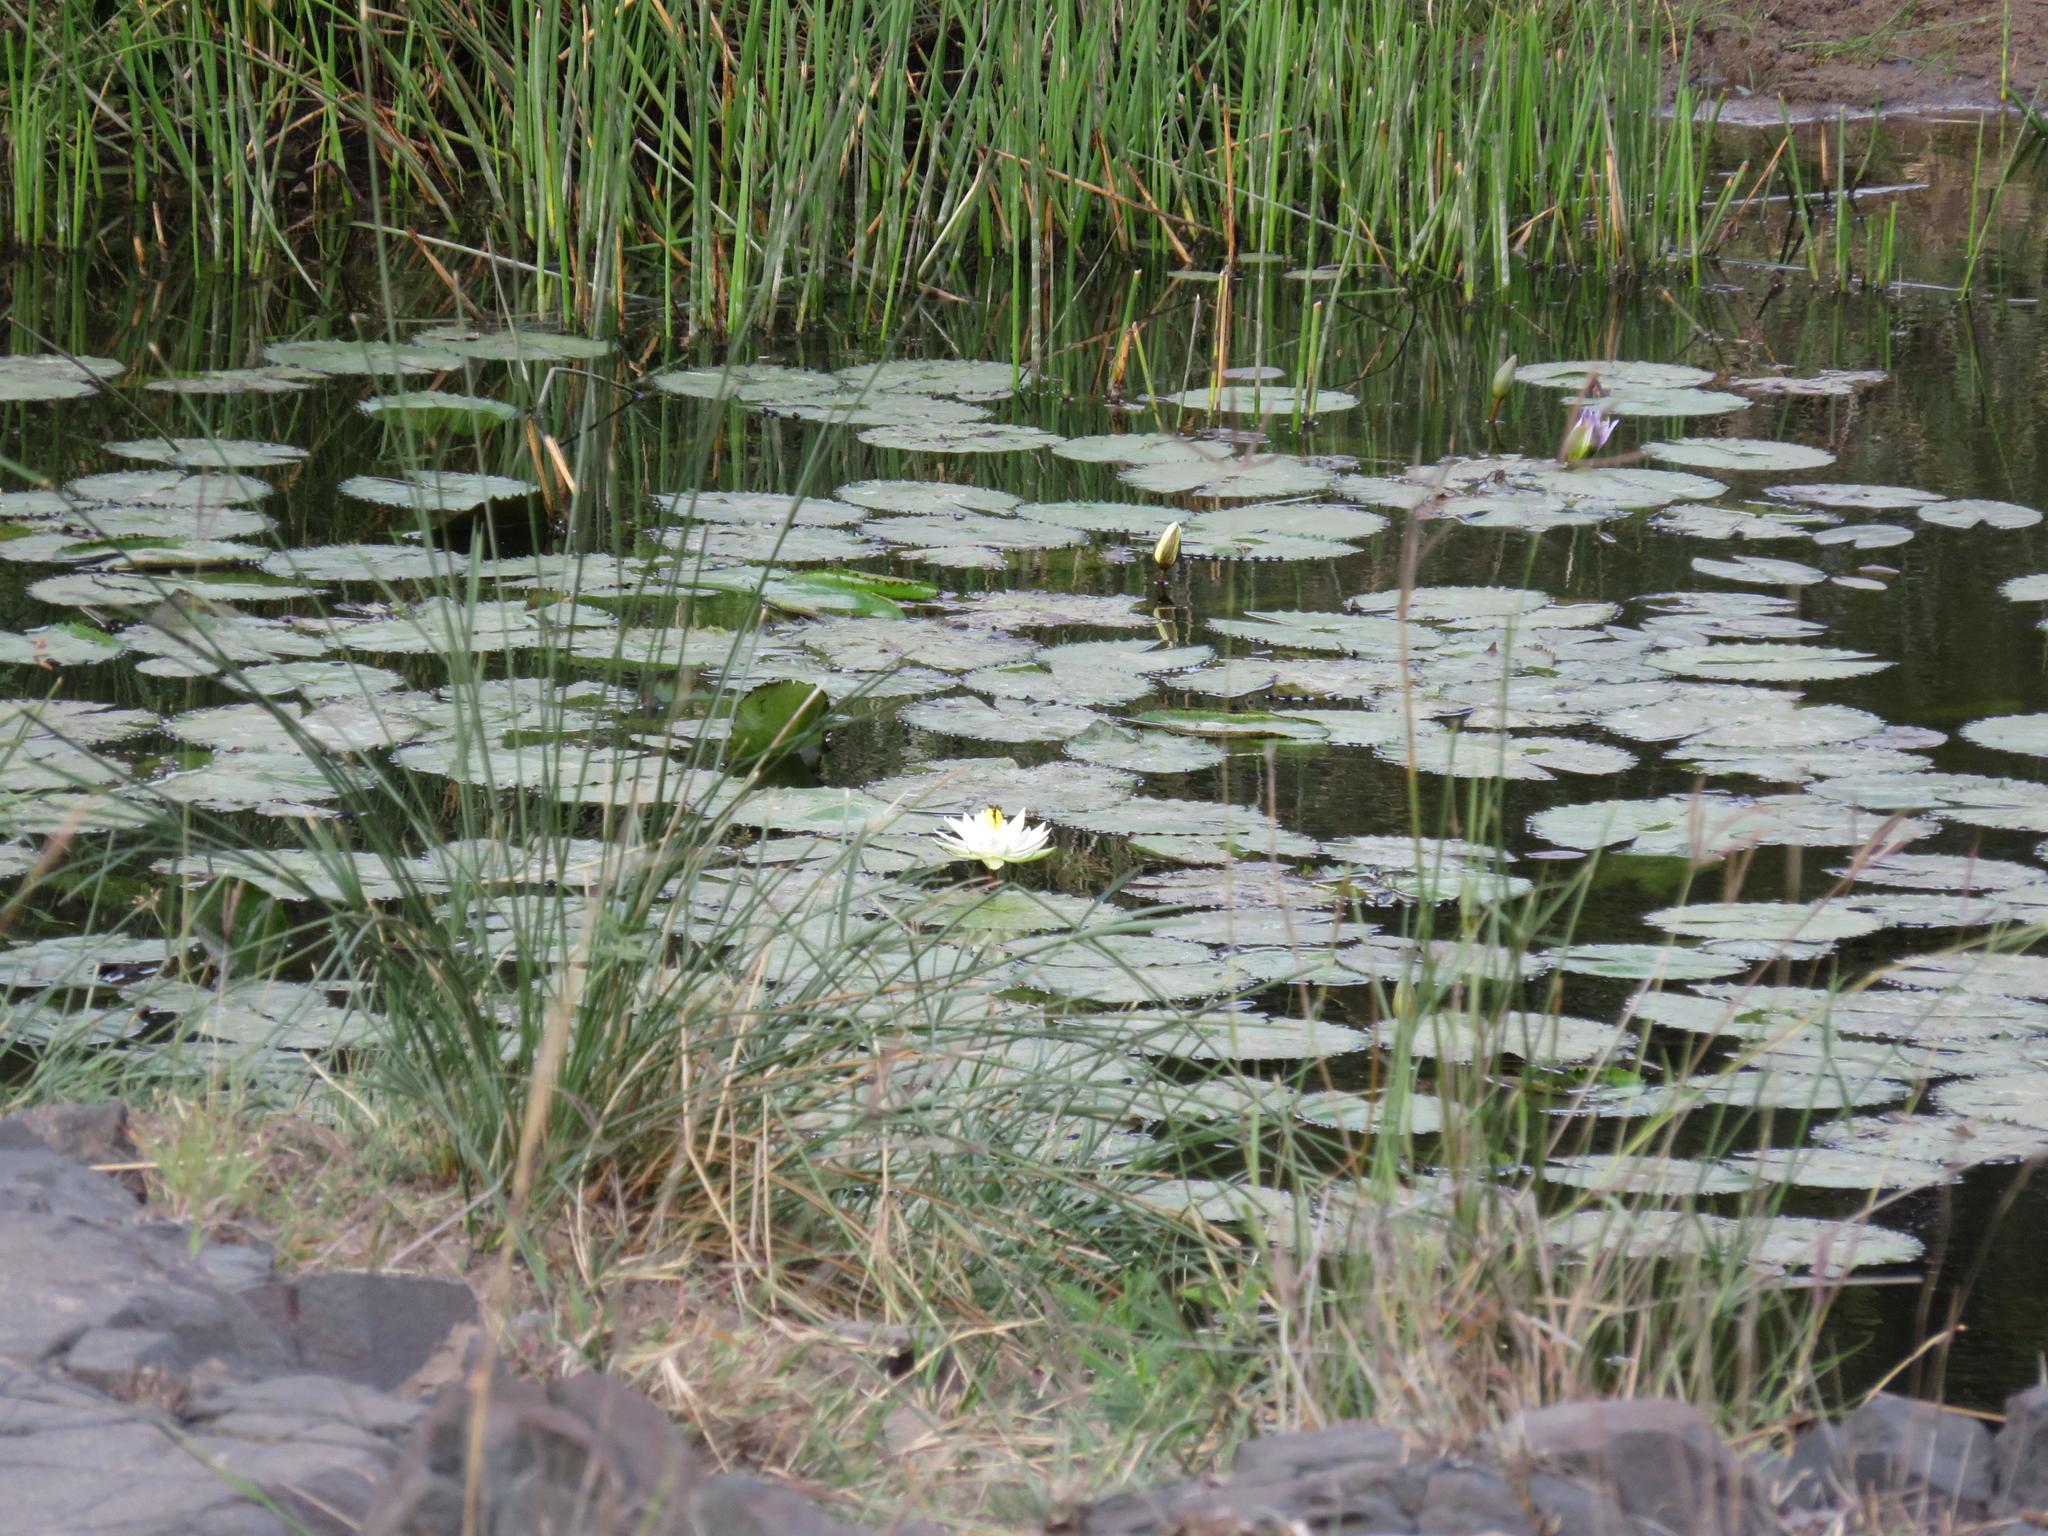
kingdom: Plantae
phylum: Tracheophyta
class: Magnoliopsida
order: Nymphaeales
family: Nymphaeaceae
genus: Nymphaea
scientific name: Nymphaea lotus
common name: White egyptian lotus
